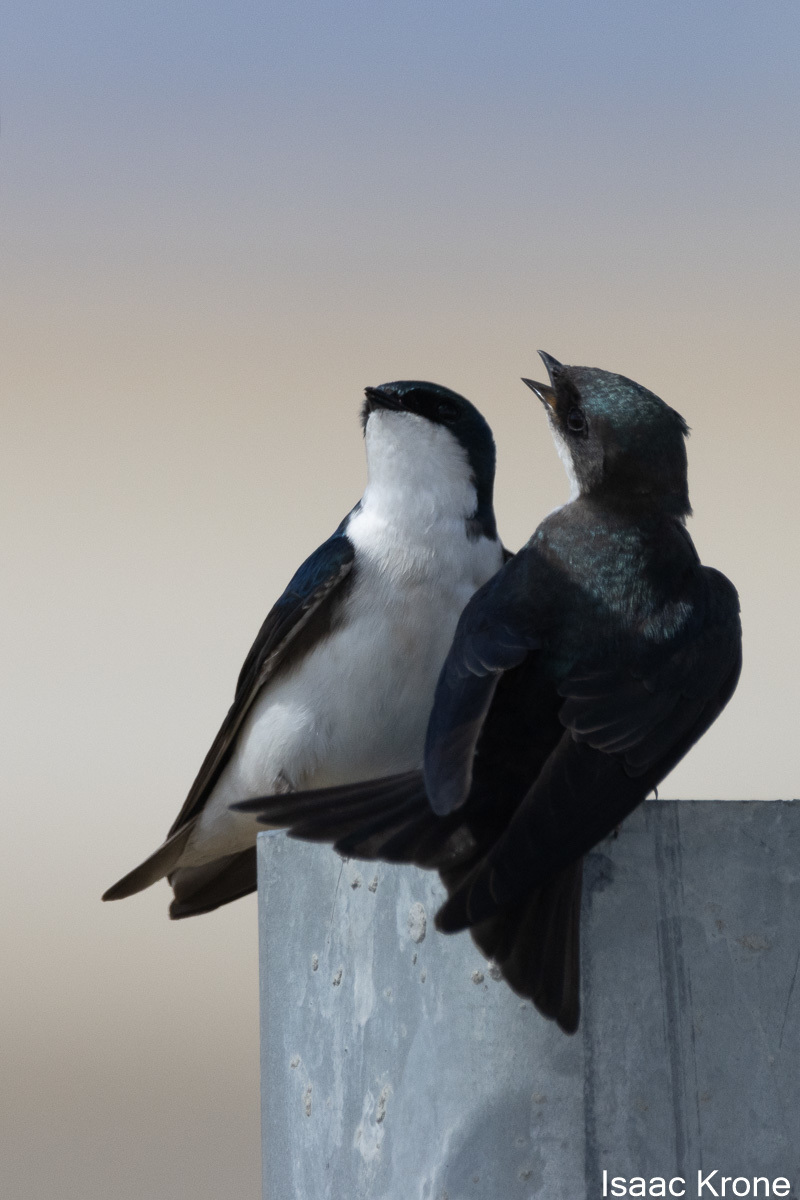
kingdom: Animalia
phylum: Chordata
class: Aves
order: Passeriformes
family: Hirundinidae
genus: Tachycineta
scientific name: Tachycineta bicolor
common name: Tree swallow
